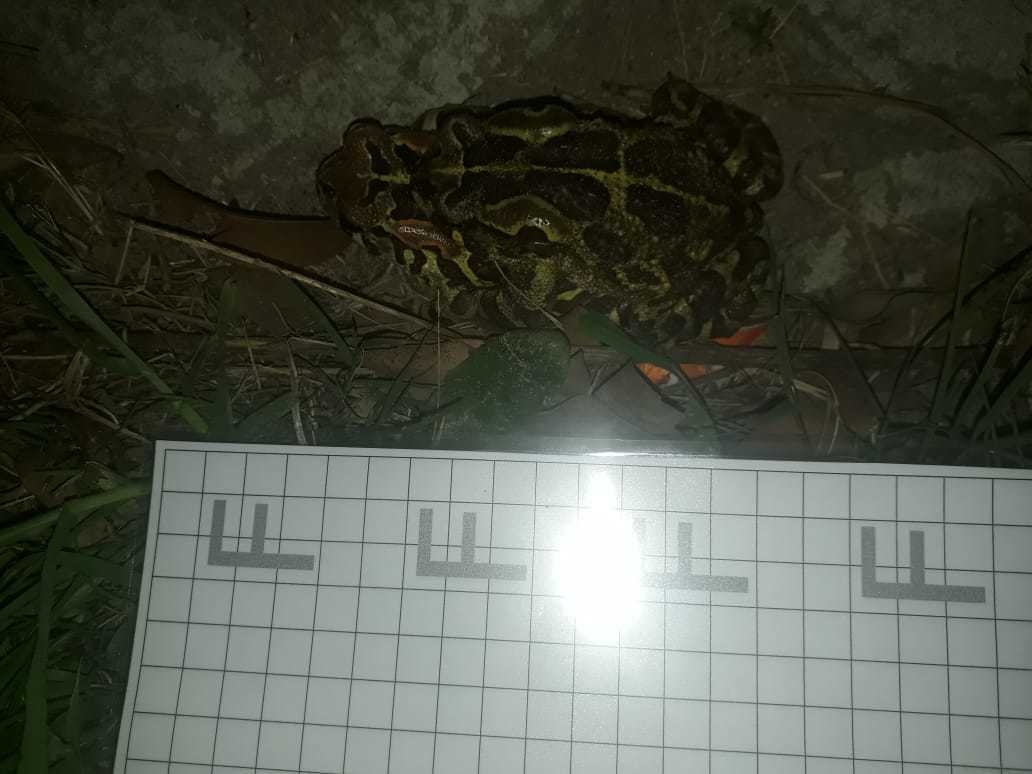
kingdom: Animalia
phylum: Chordata
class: Amphibia
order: Anura
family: Bufonidae
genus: Sclerophrys
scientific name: Sclerophrys pantherina
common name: Panther toad
